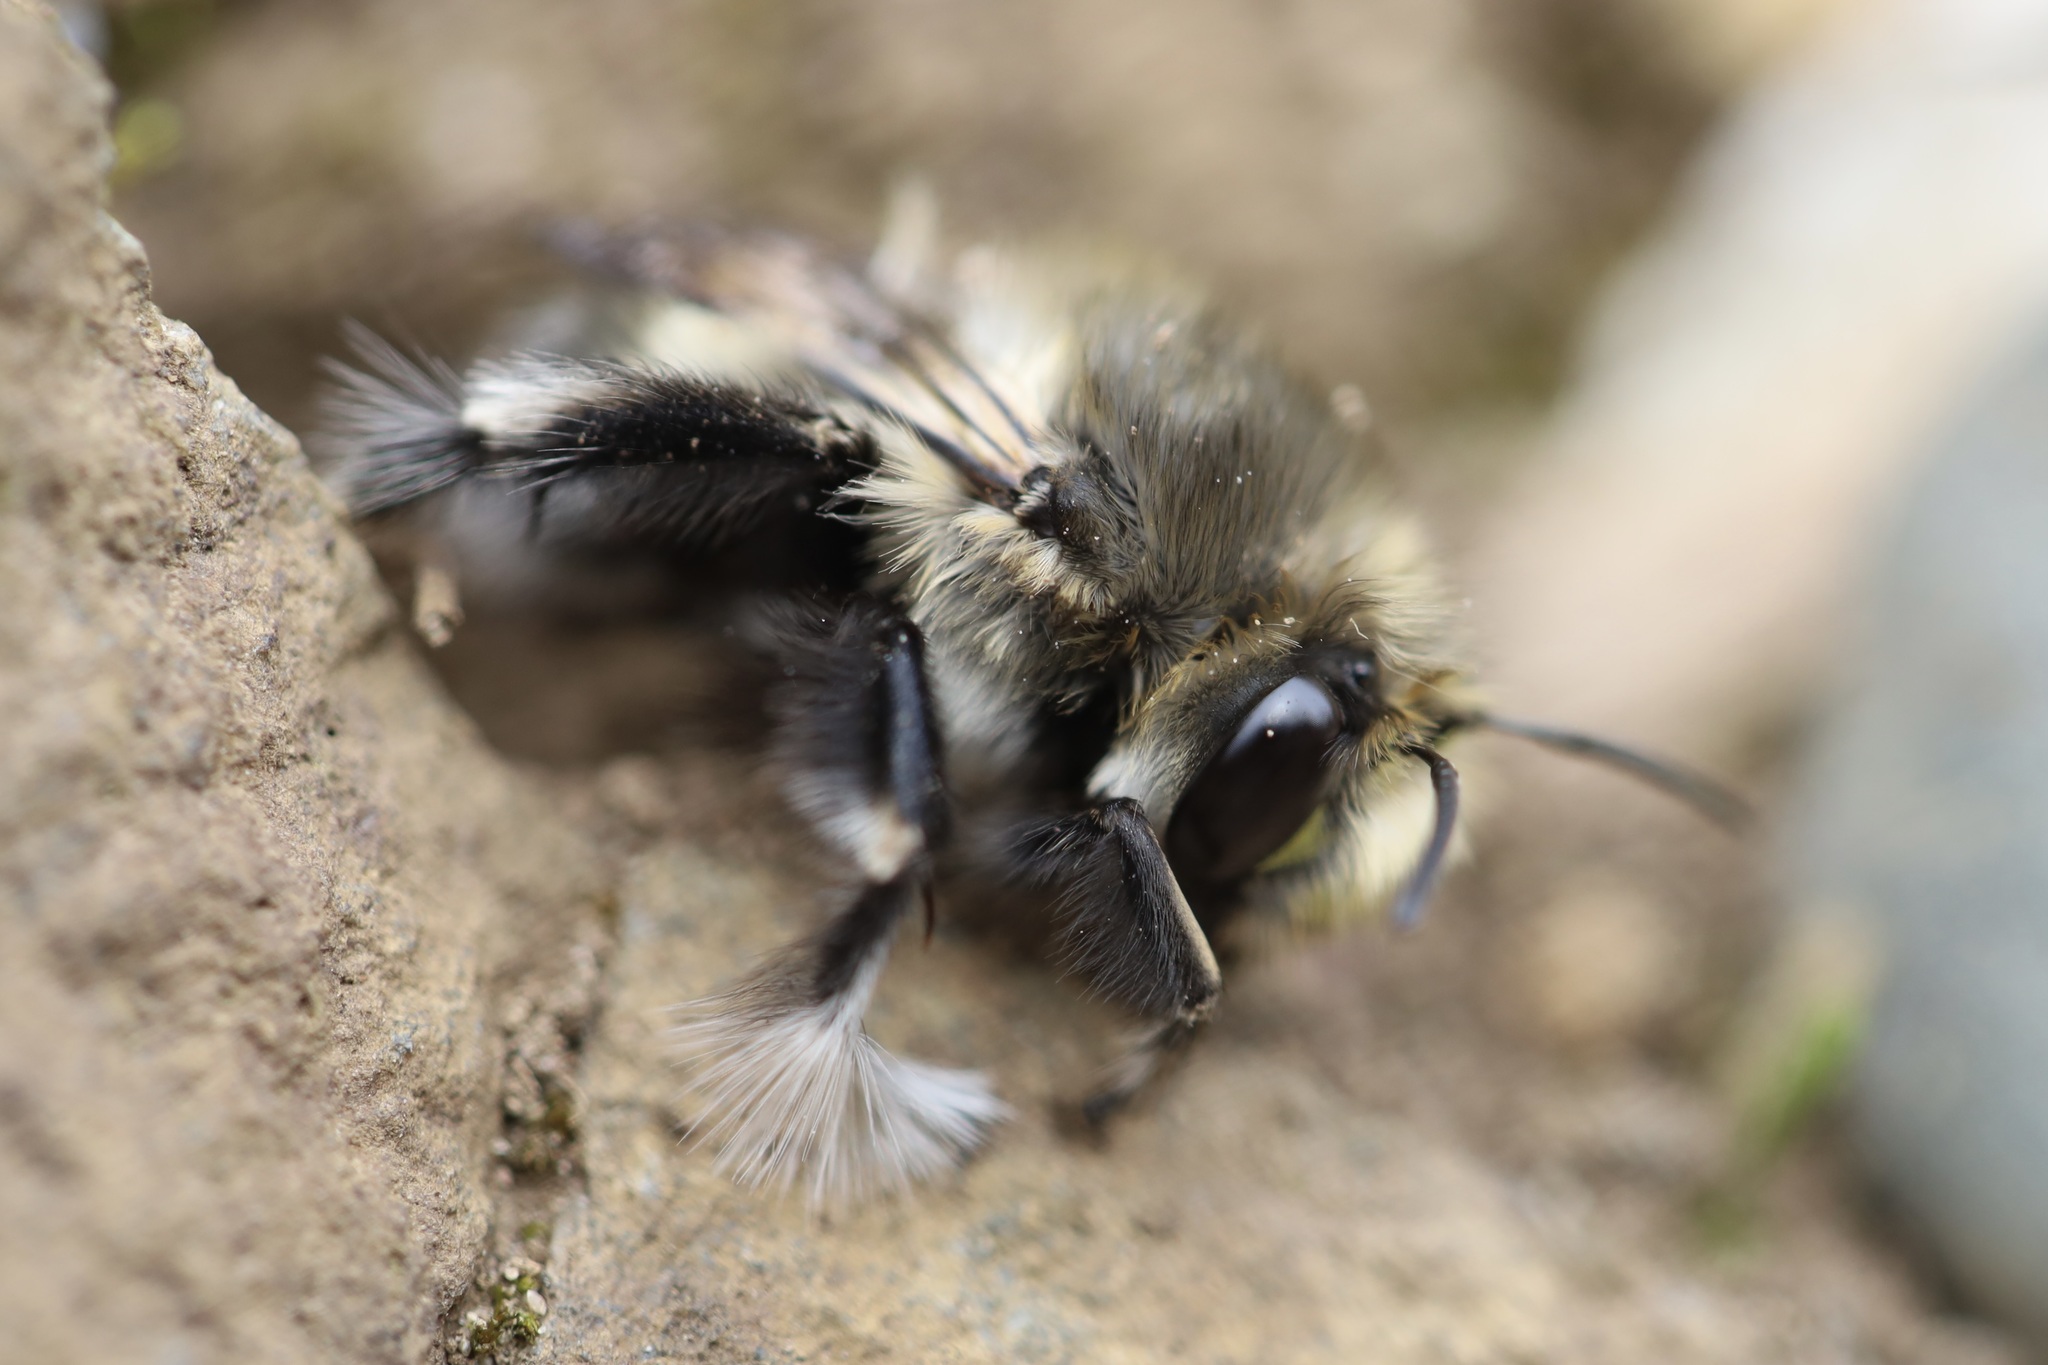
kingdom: Animalia
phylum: Arthropoda
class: Insecta
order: Hymenoptera
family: Apidae
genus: Anthophora
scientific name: Anthophora pacifica
